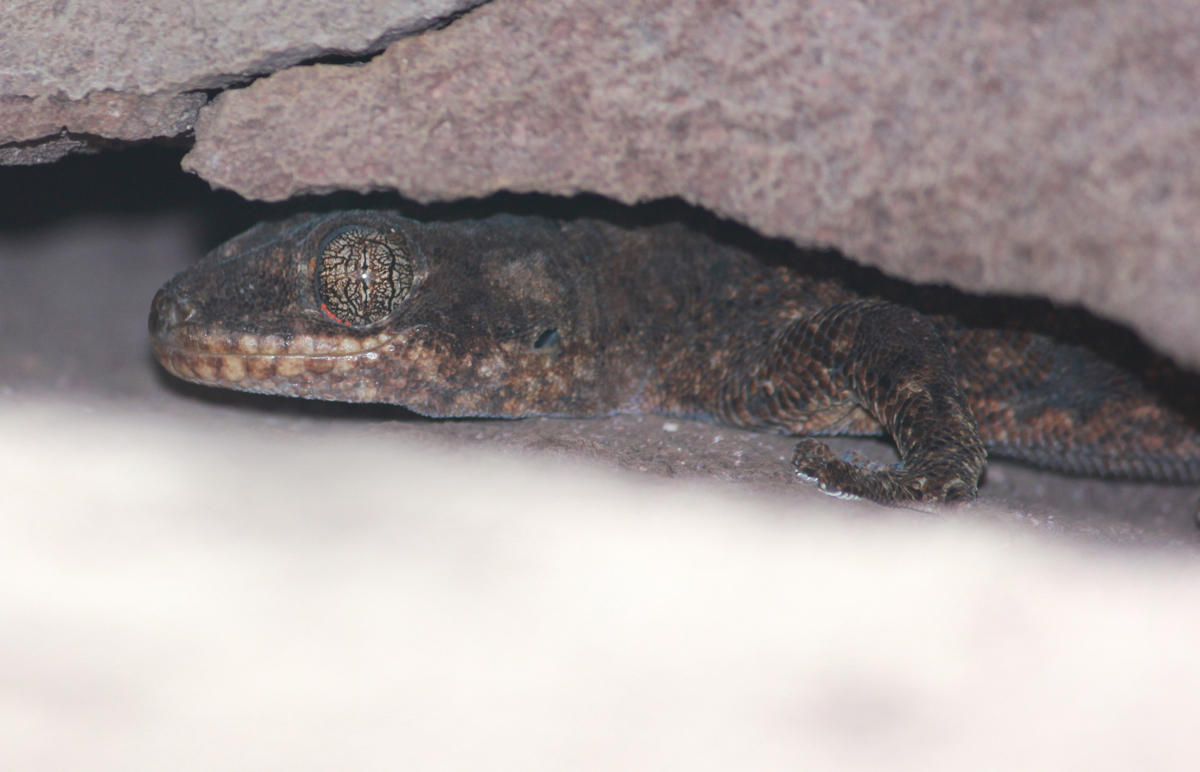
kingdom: Animalia
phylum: Chordata
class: Squamata
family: Gekkonidae
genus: Homopholis
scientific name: Homopholis walbergii
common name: Wahlberg’s velvet gecko
